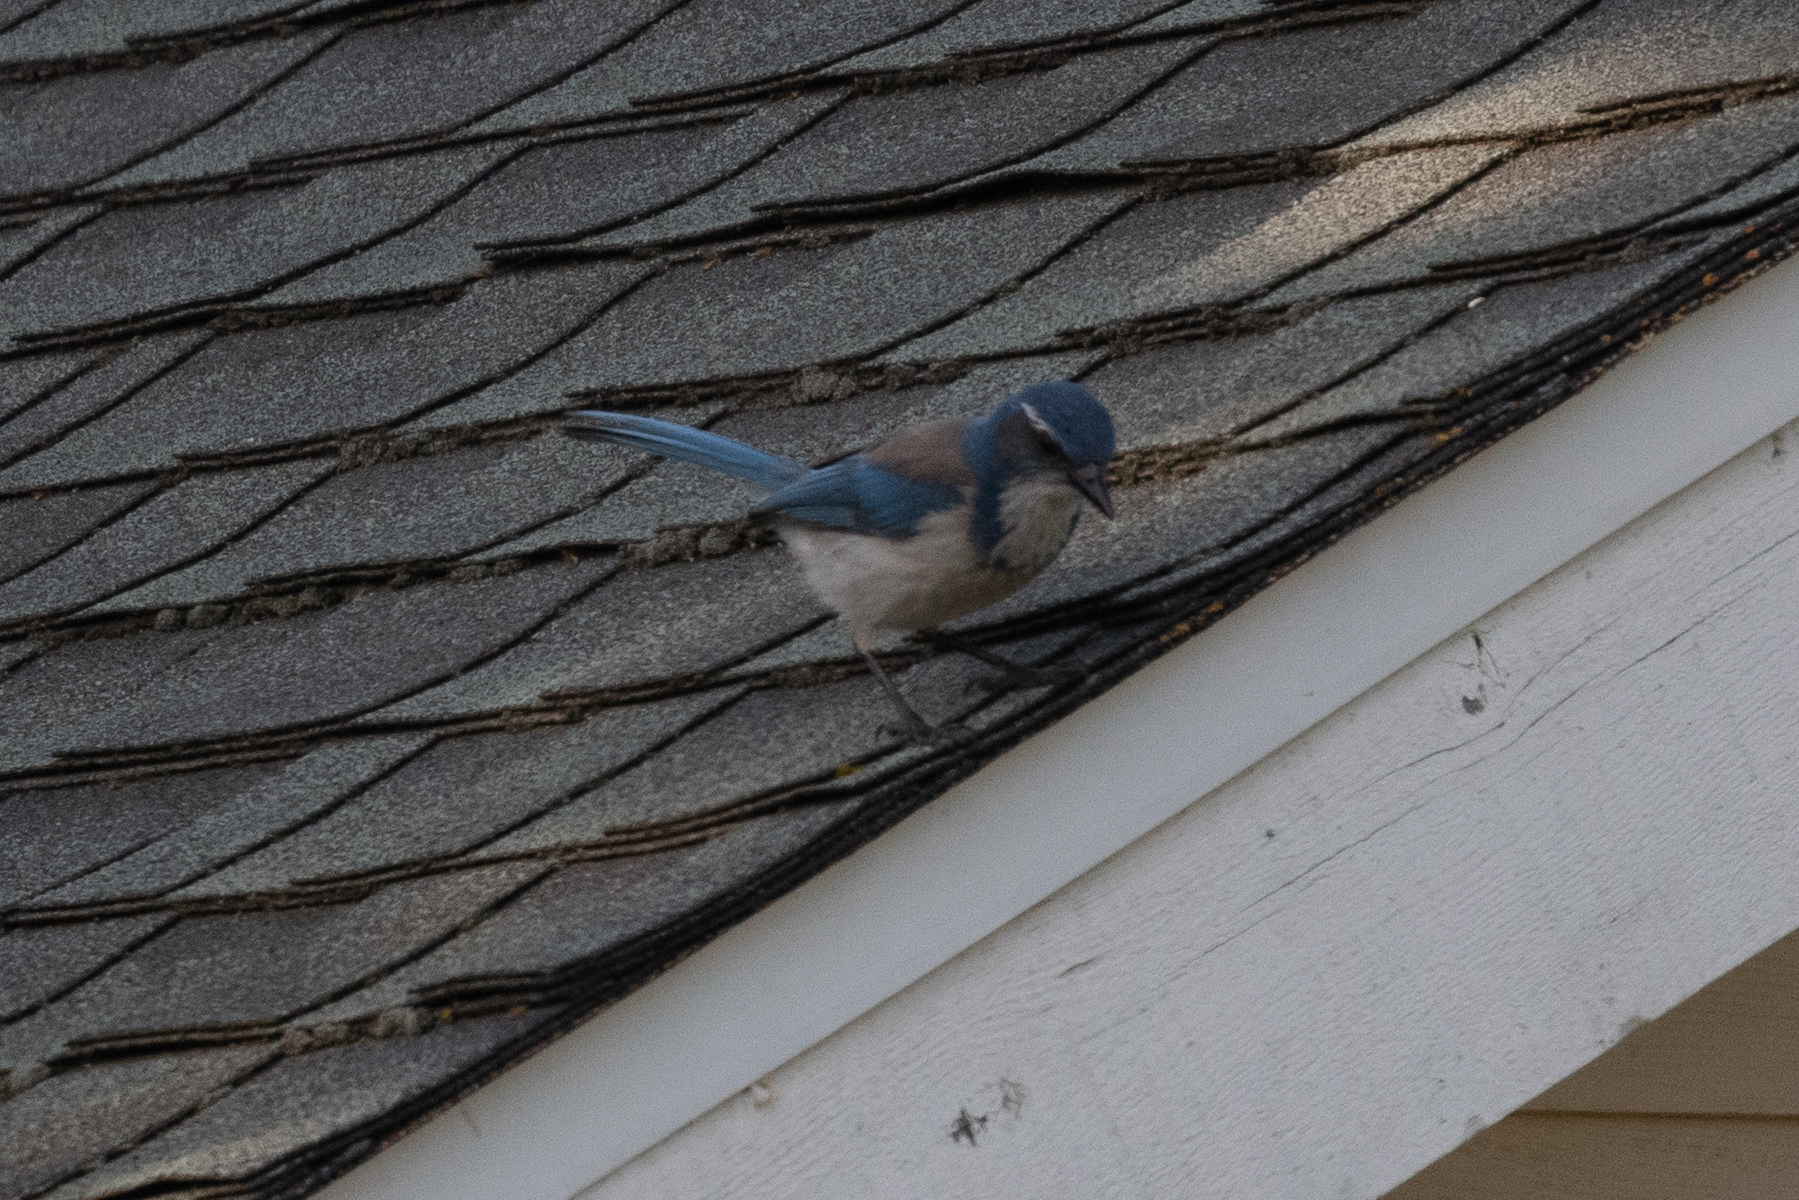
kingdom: Animalia
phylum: Chordata
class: Aves
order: Passeriformes
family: Corvidae
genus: Aphelocoma
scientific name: Aphelocoma californica
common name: California scrub-jay
